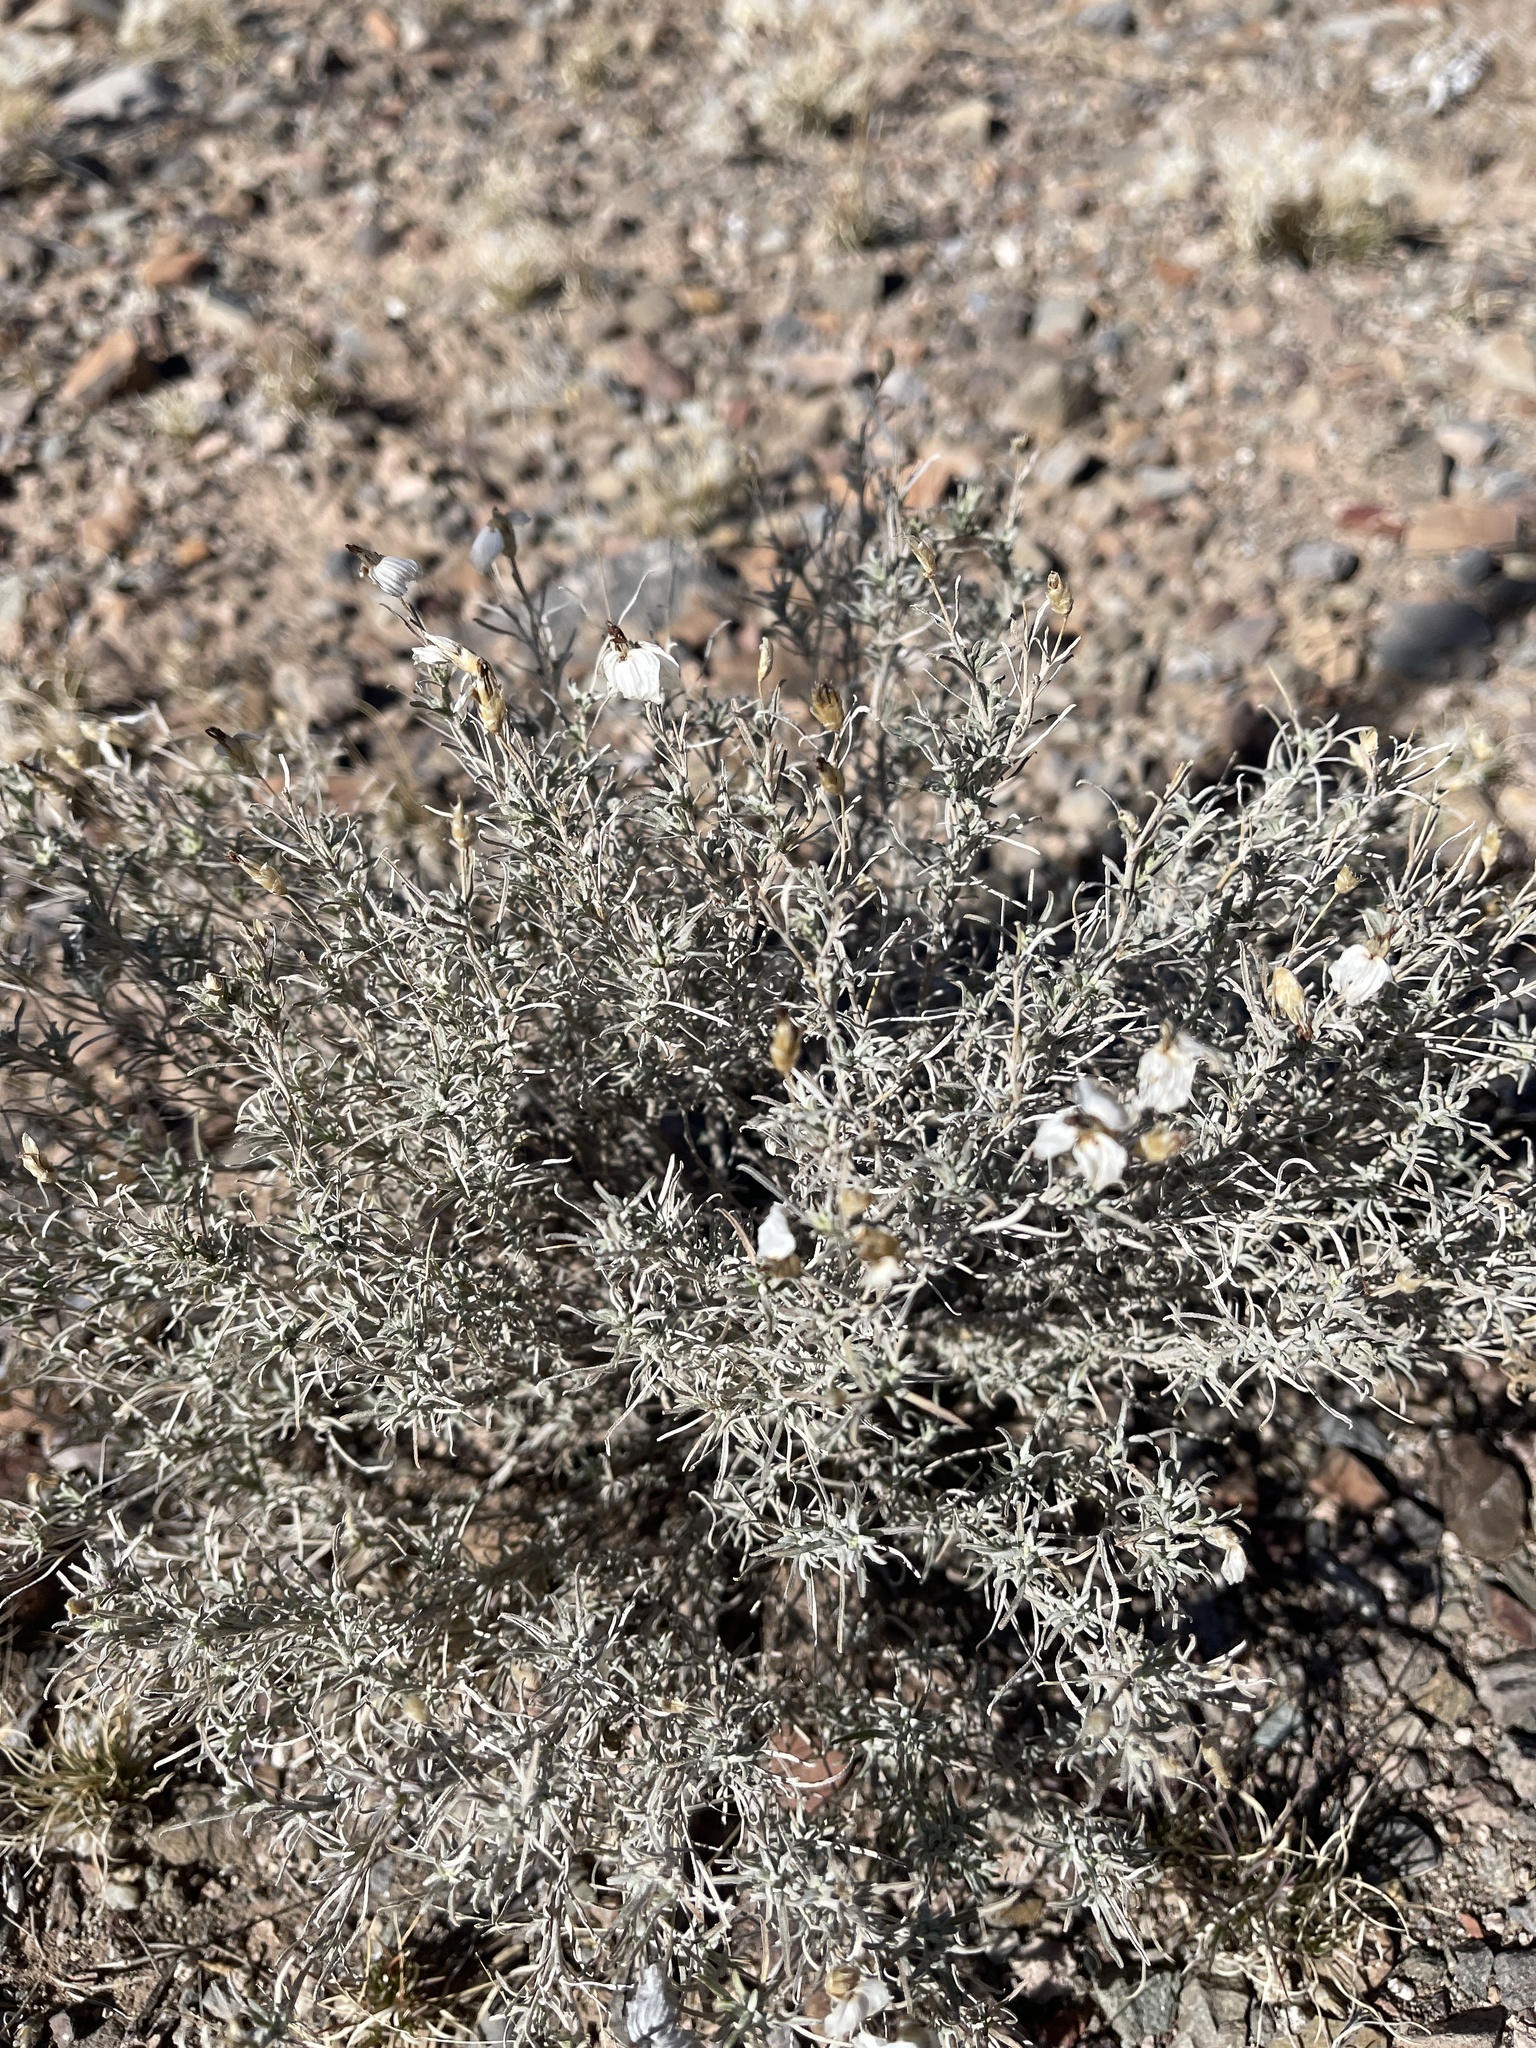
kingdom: Plantae
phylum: Tracheophyta
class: Magnoliopsida
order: Asterales
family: Asteraceae
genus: Zinnia
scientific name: Zinnia acerosa
